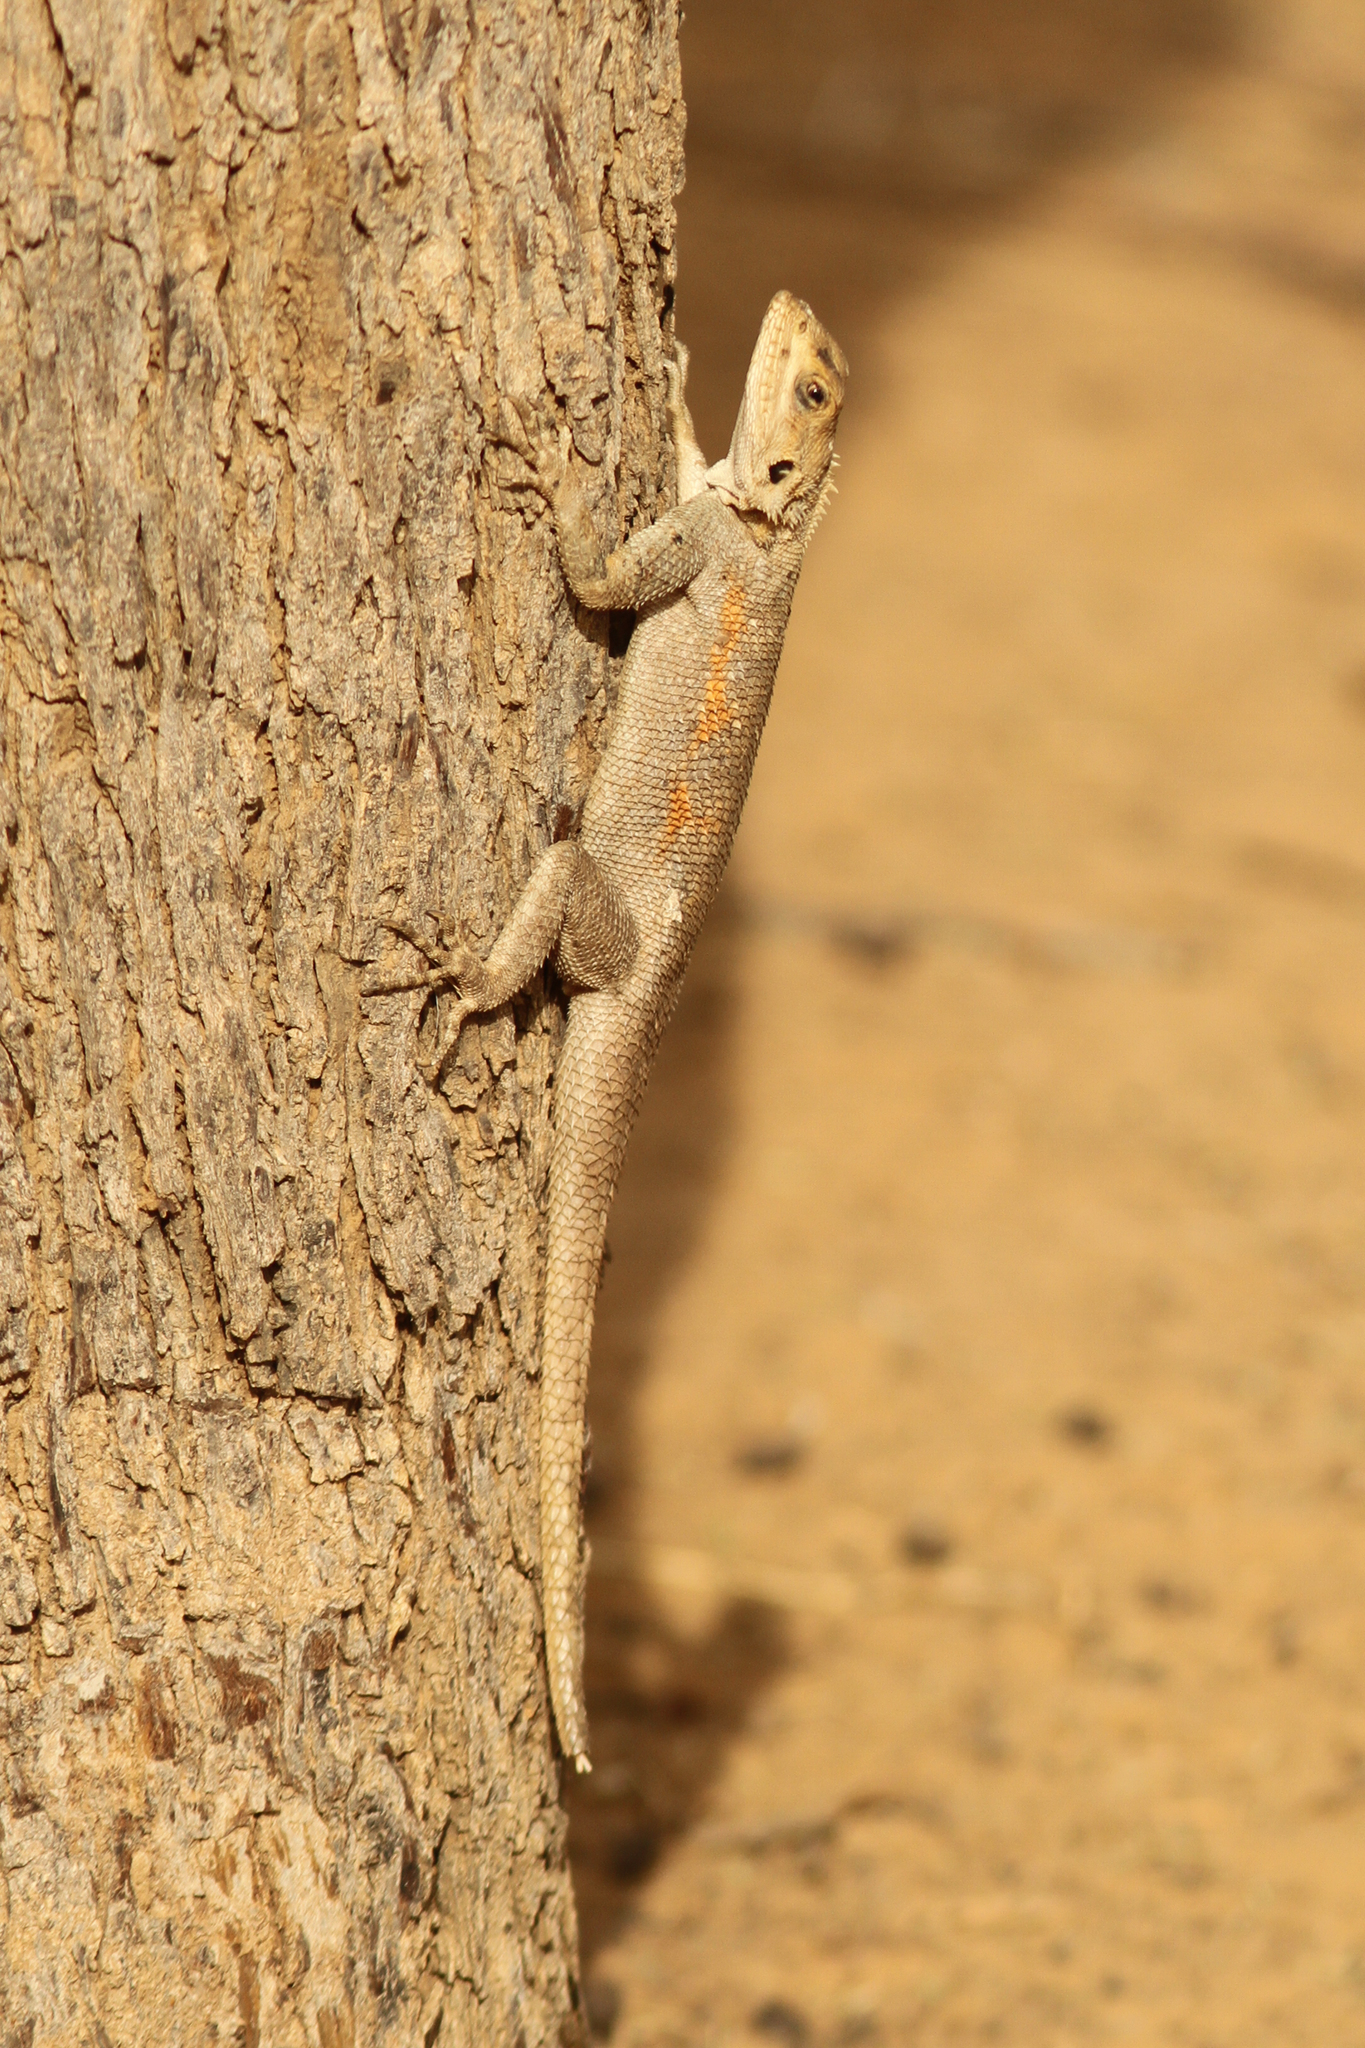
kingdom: Animalia
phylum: Chordata
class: Squamata
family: Agamidae
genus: Agama
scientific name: Agama agama
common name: Common agama
